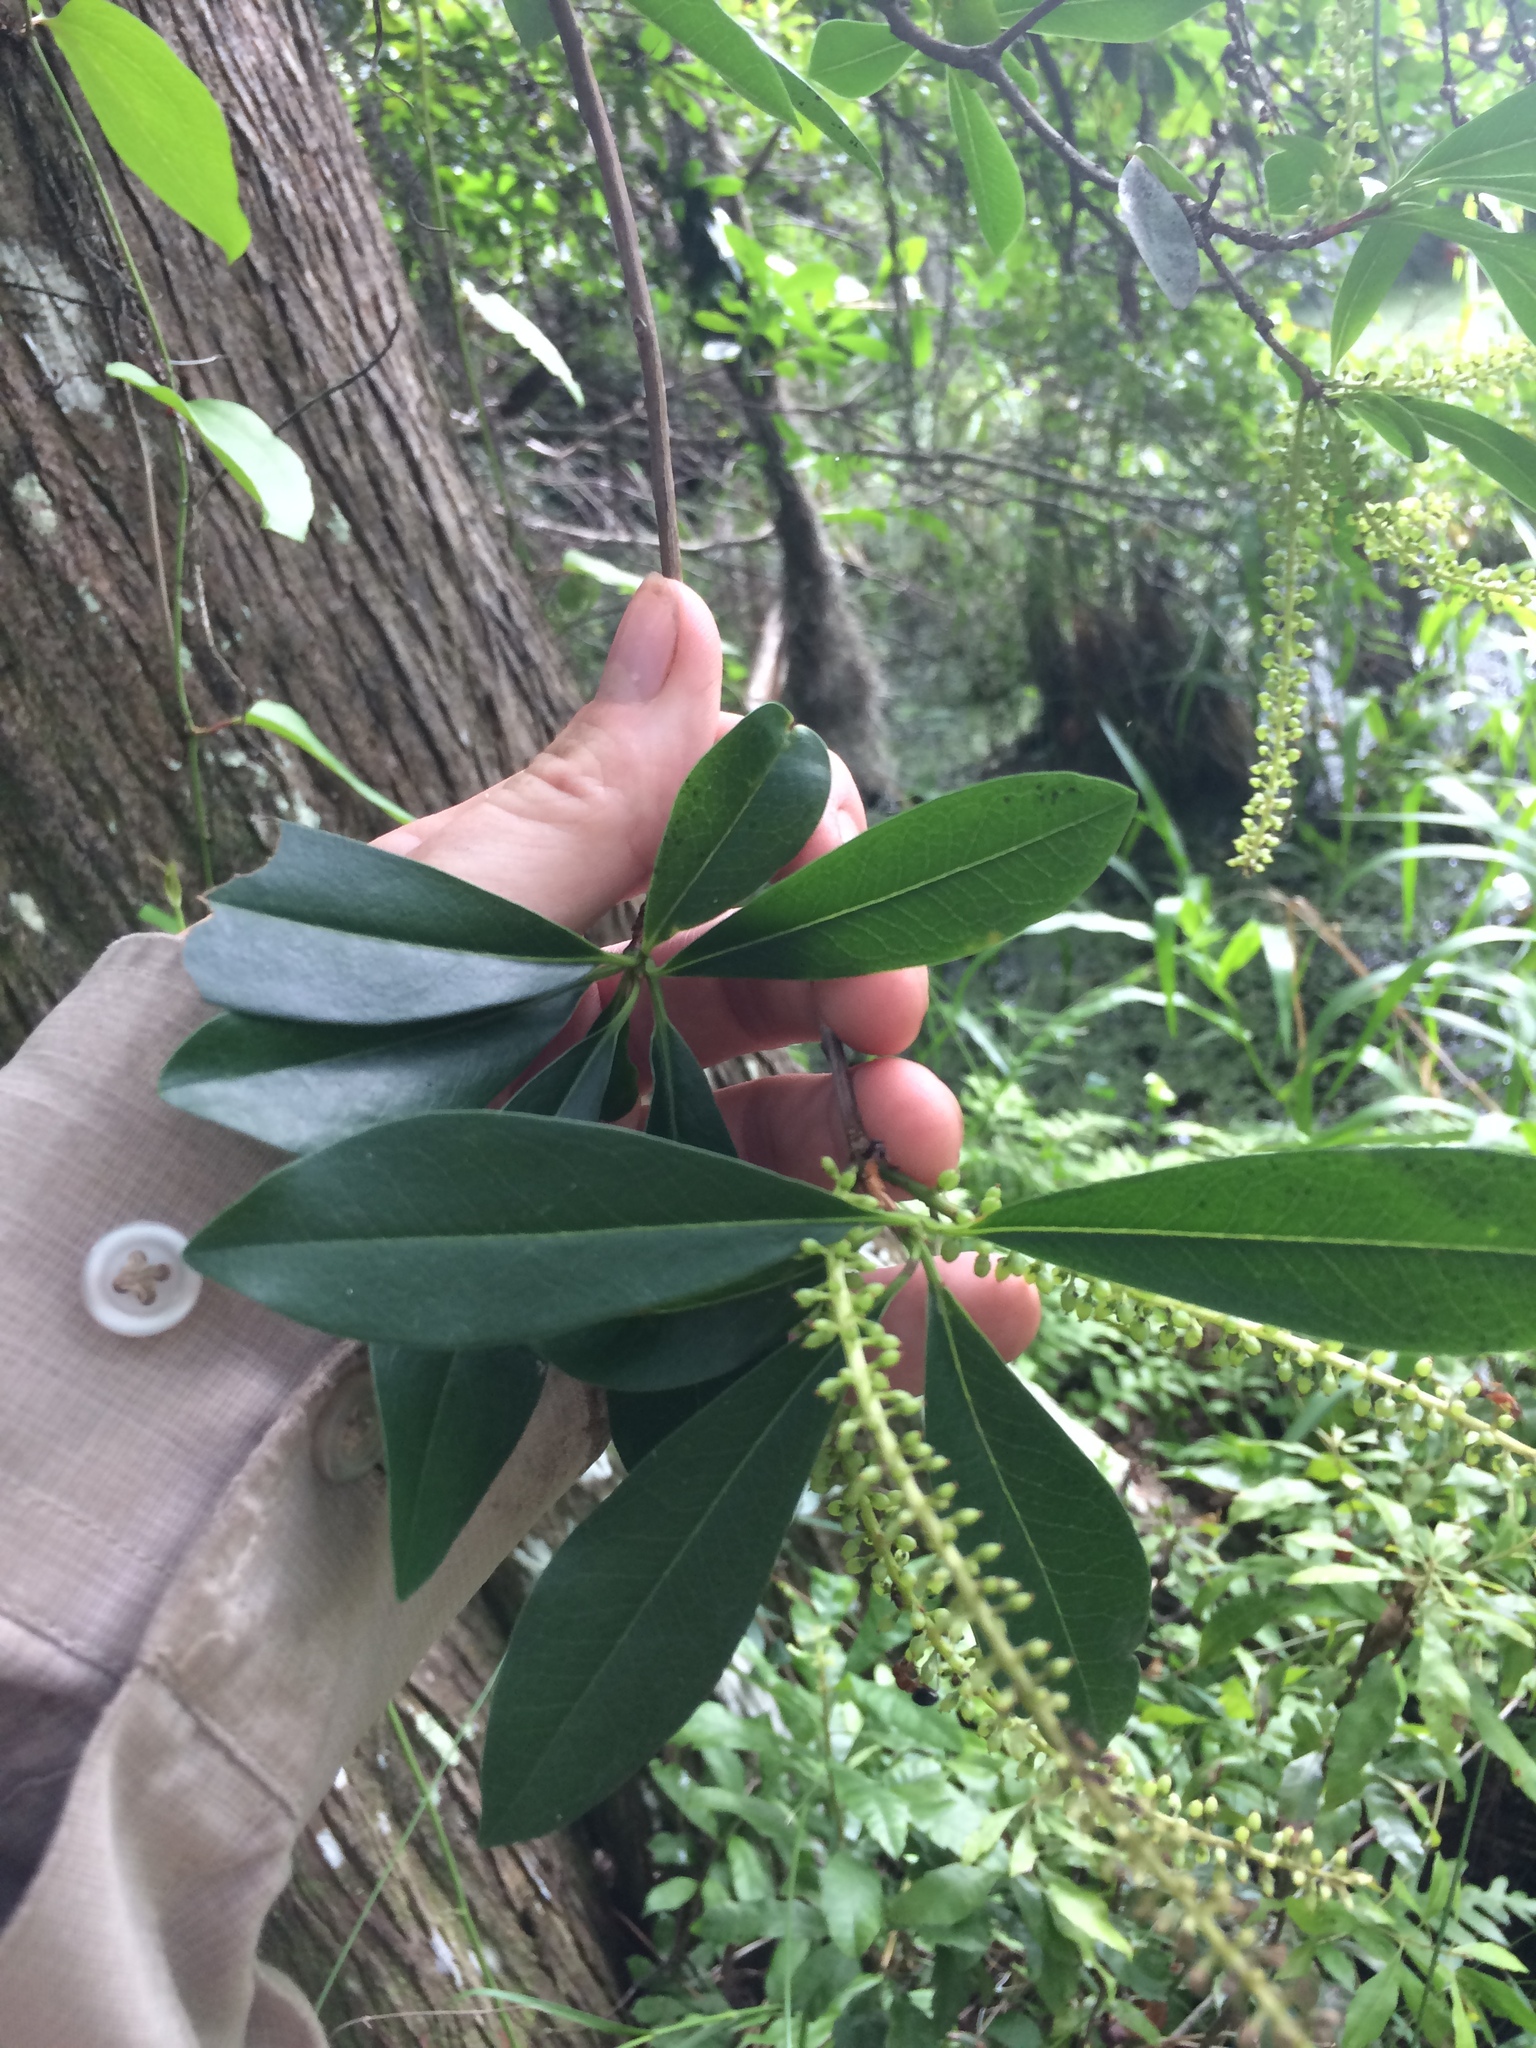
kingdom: Plantae
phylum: Tracheophyta
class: Magnoliopsida
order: Ericales
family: Cyrillaceae
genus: Cyrilla
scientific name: Cyrilla racemiflora
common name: Black titi
